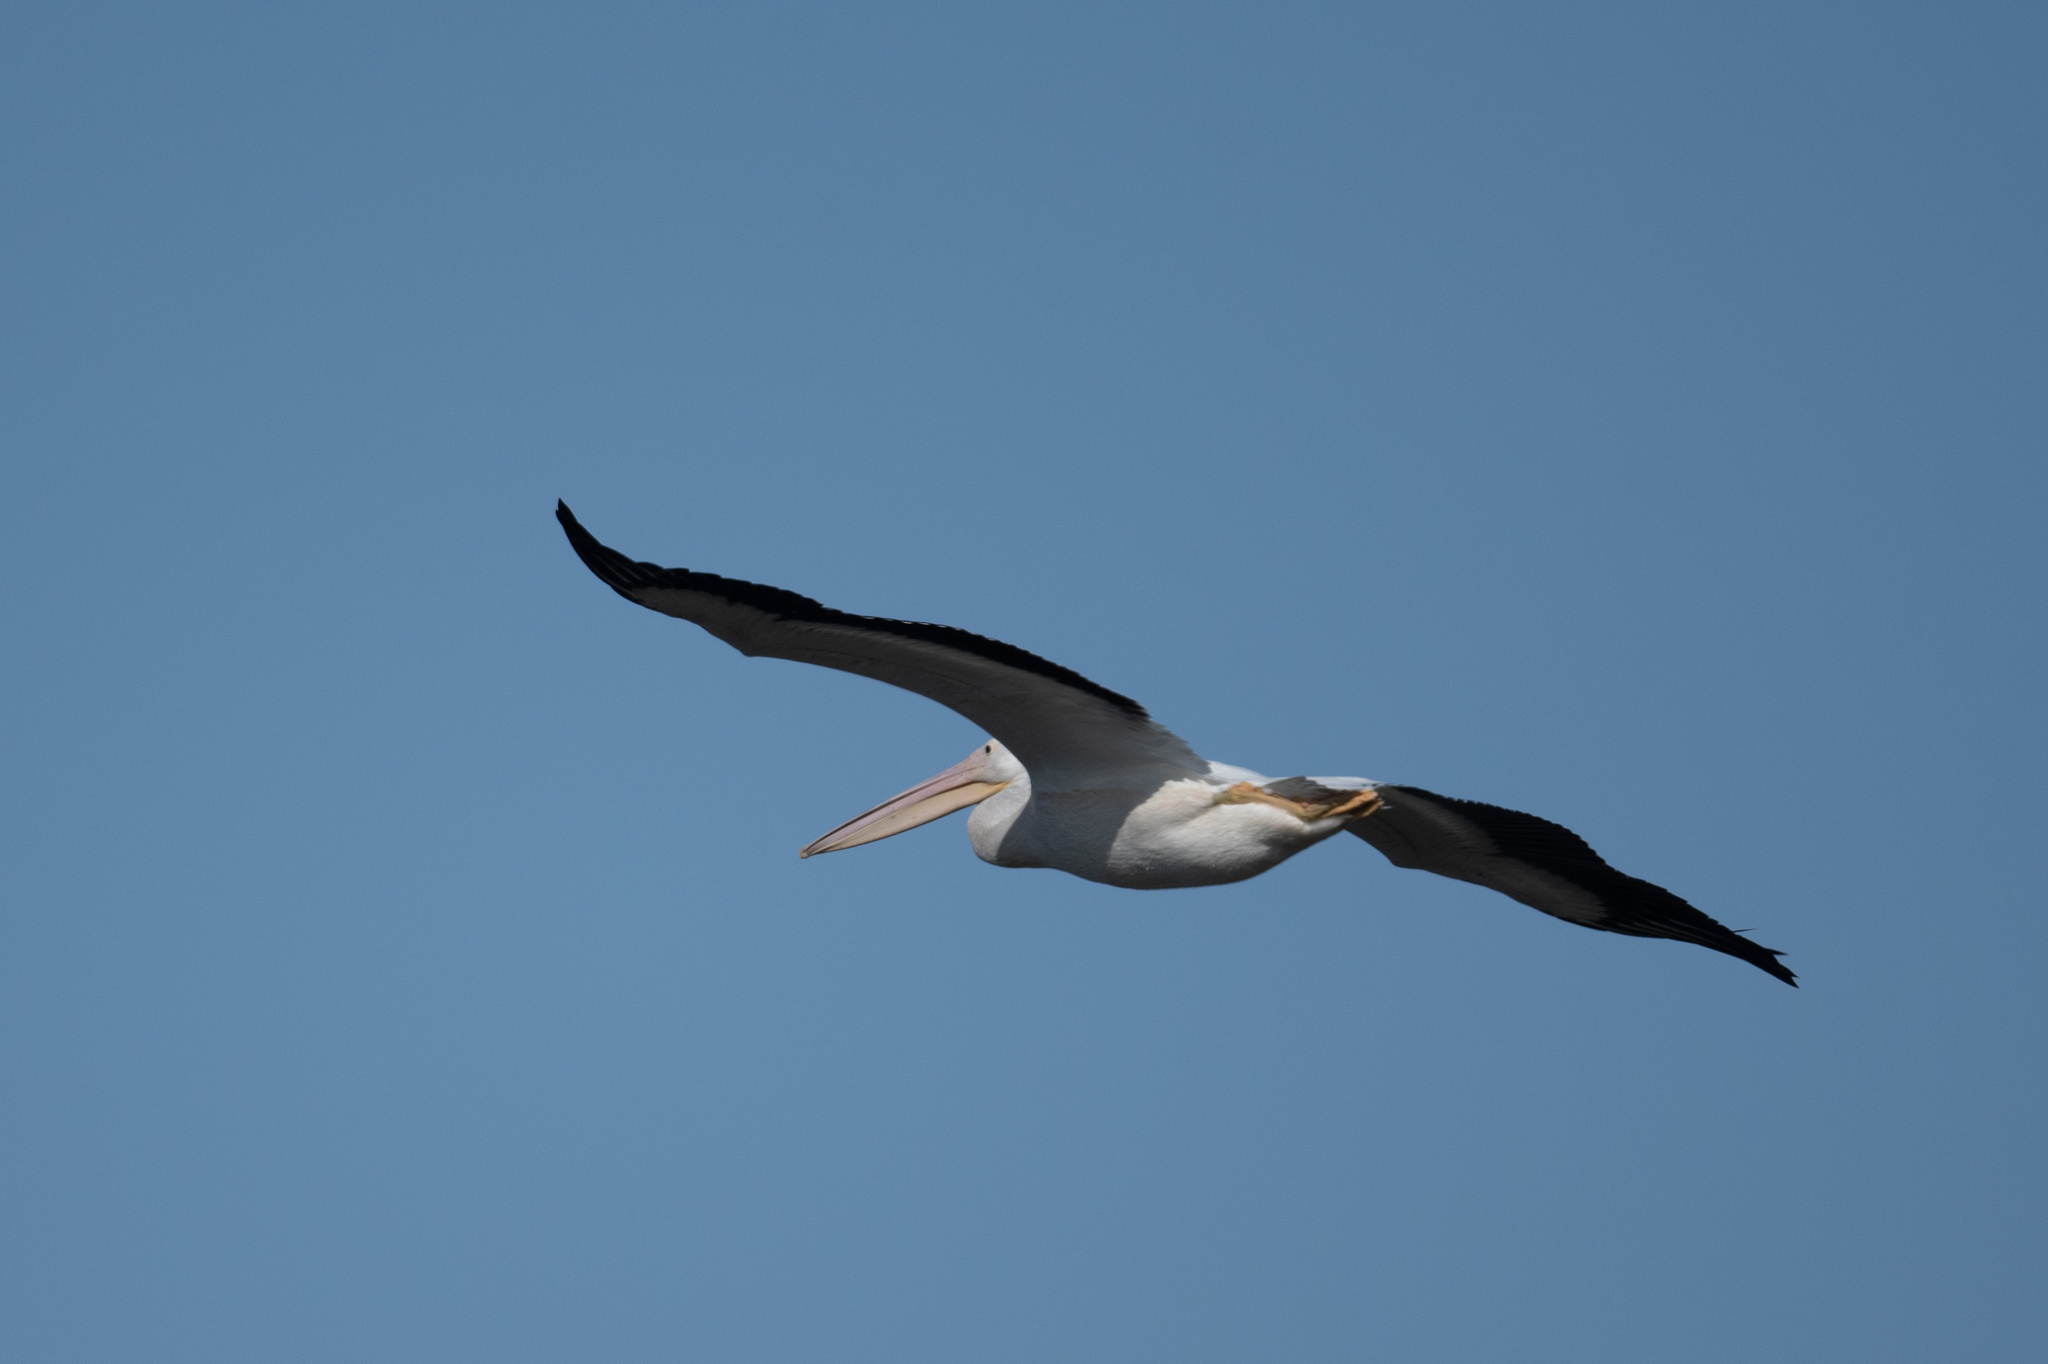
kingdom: Animalia
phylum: Chordata
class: Aves
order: Pelecaniformes
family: Pelecanidae
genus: Pelecanus
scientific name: Pelecanus erythrorhynchos
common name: American white pelican
